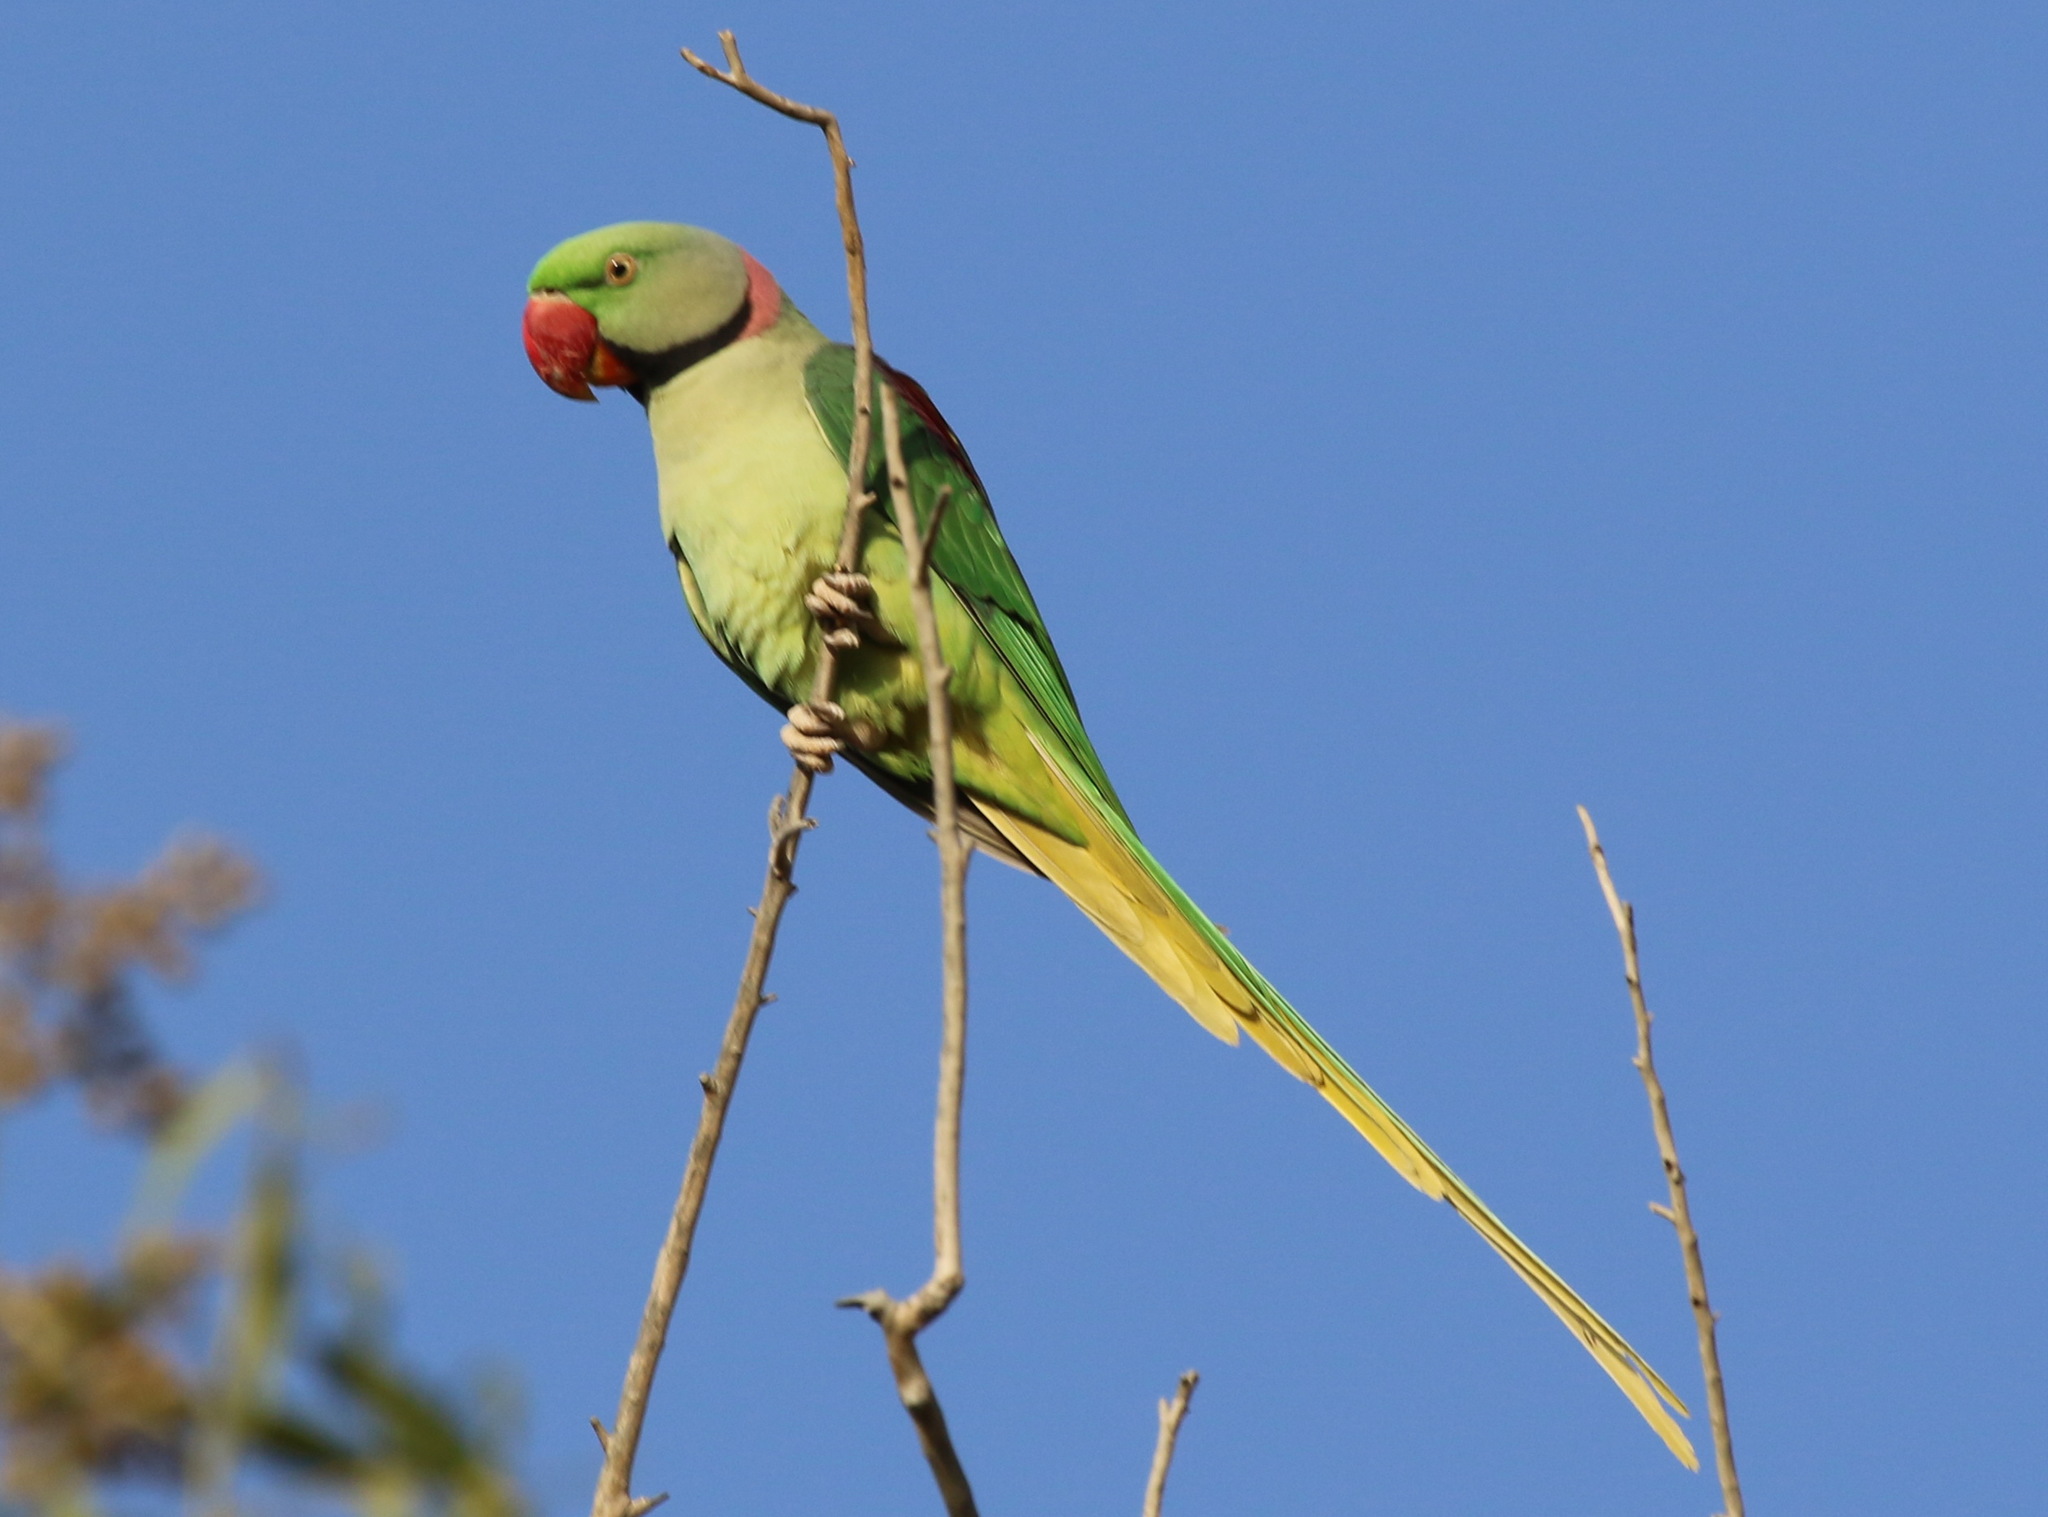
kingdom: Animalia
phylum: Chordata
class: Aves
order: Psittaciformes
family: Psittacidae
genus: Psittacula
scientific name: Psittacula eupatria
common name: Alexandrine parakeet
